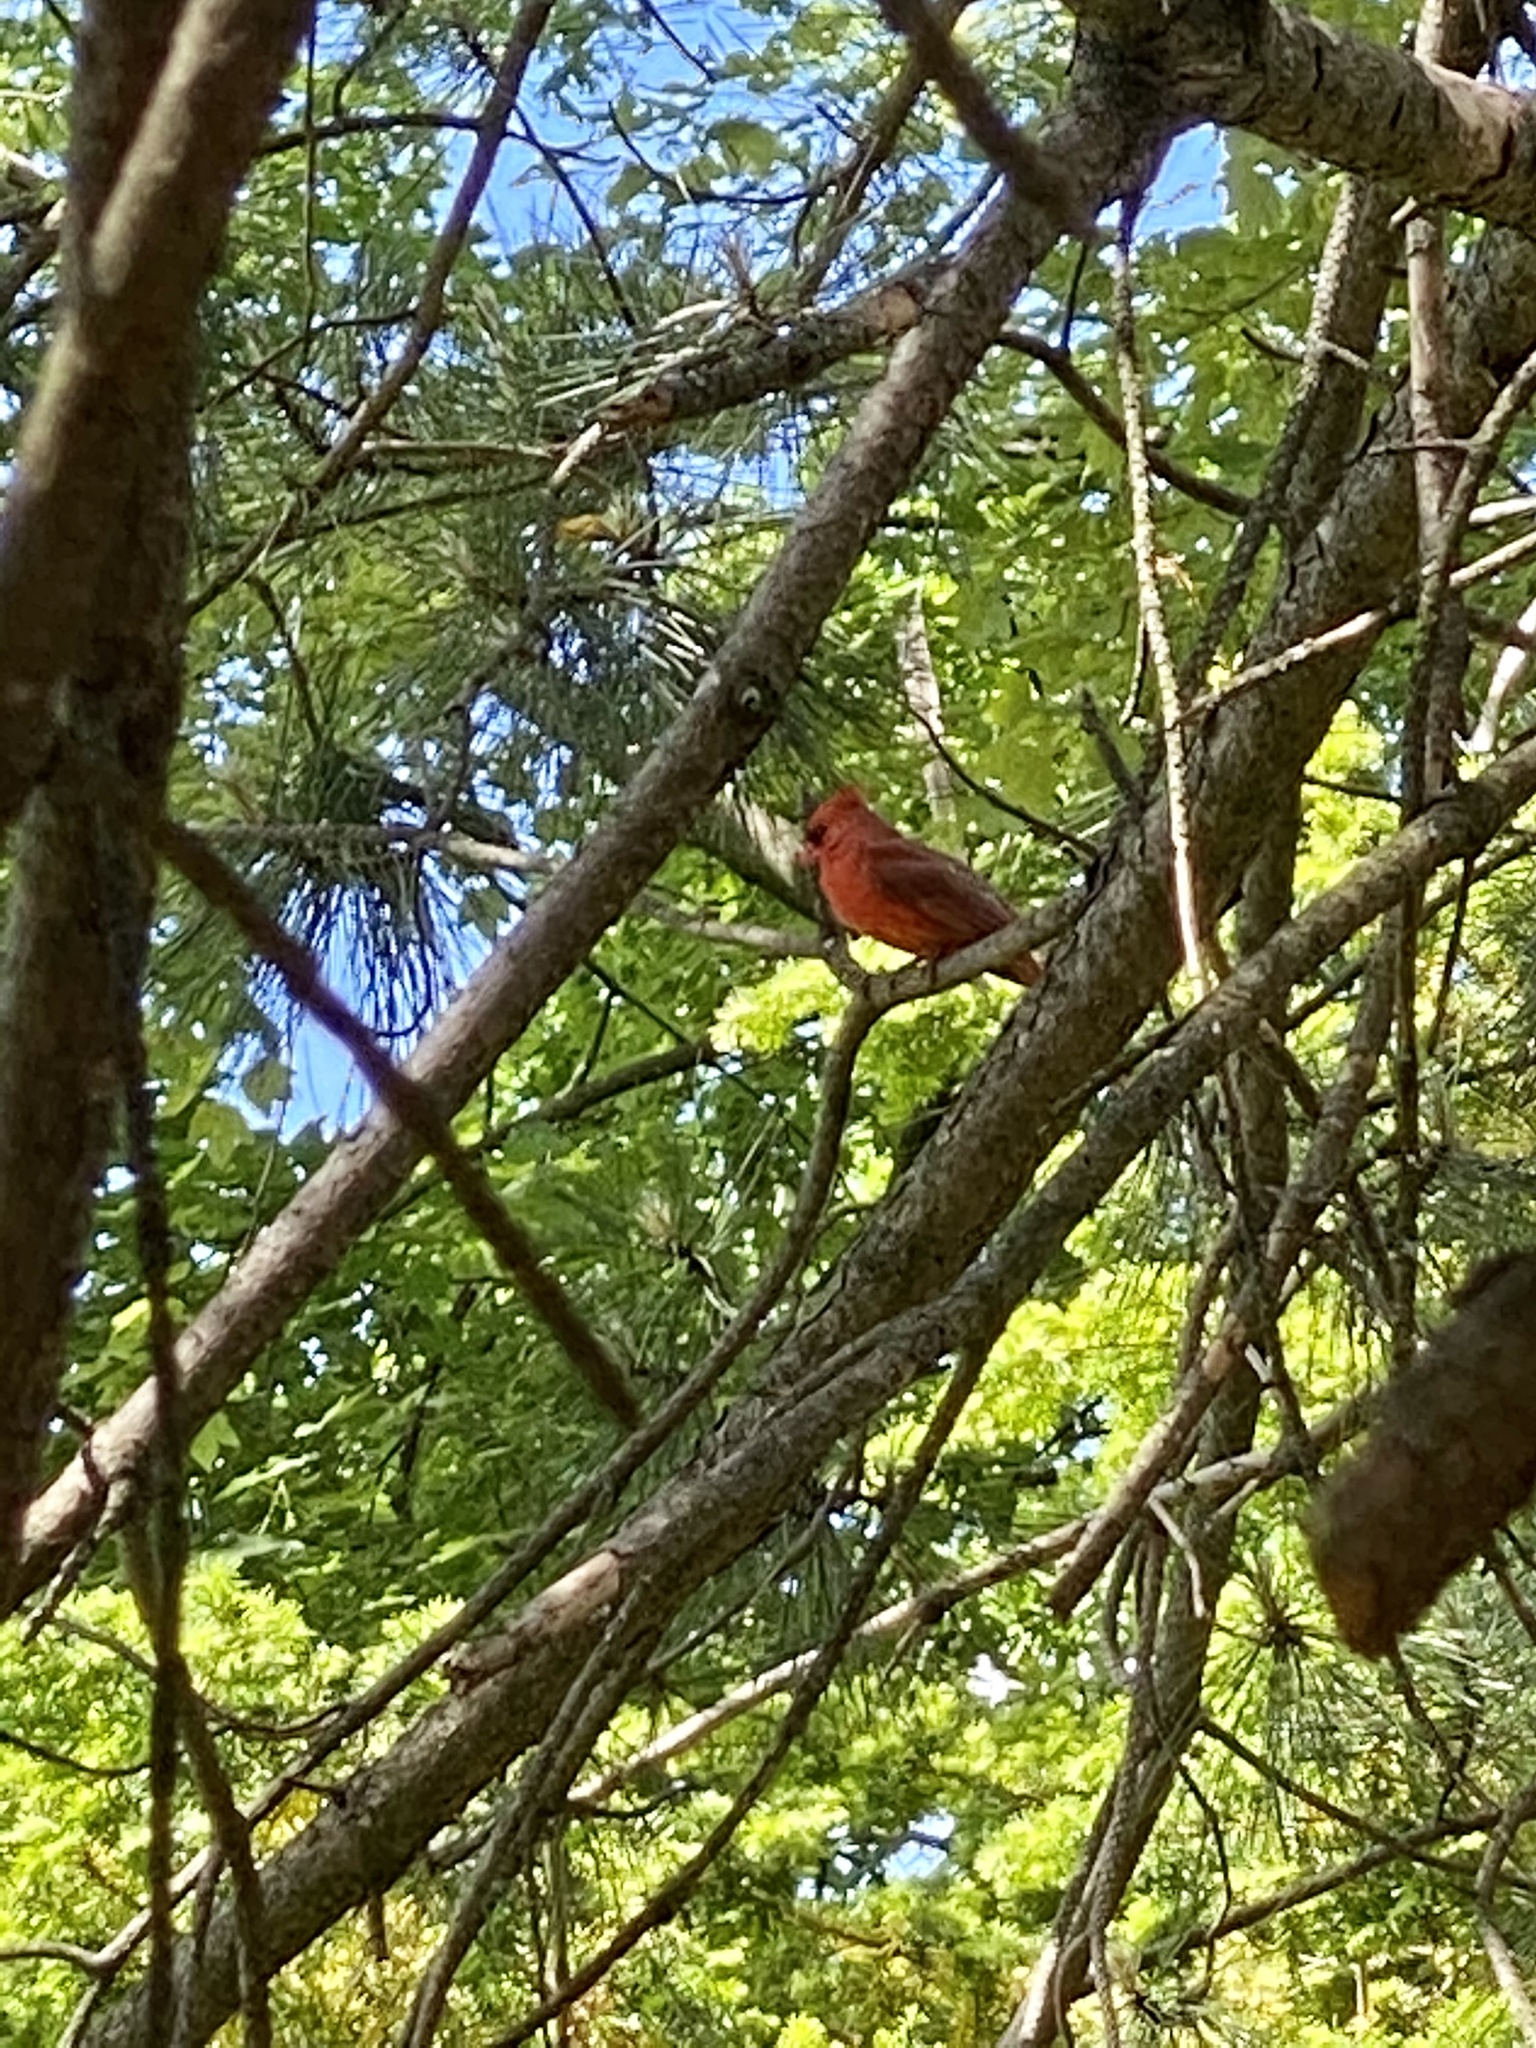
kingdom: Animalia
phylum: Chordata
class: Aves
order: Passeriformes
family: Cardinalidae
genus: Cardinalis
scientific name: Cardinalis cardinalis
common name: Northern cardinal
